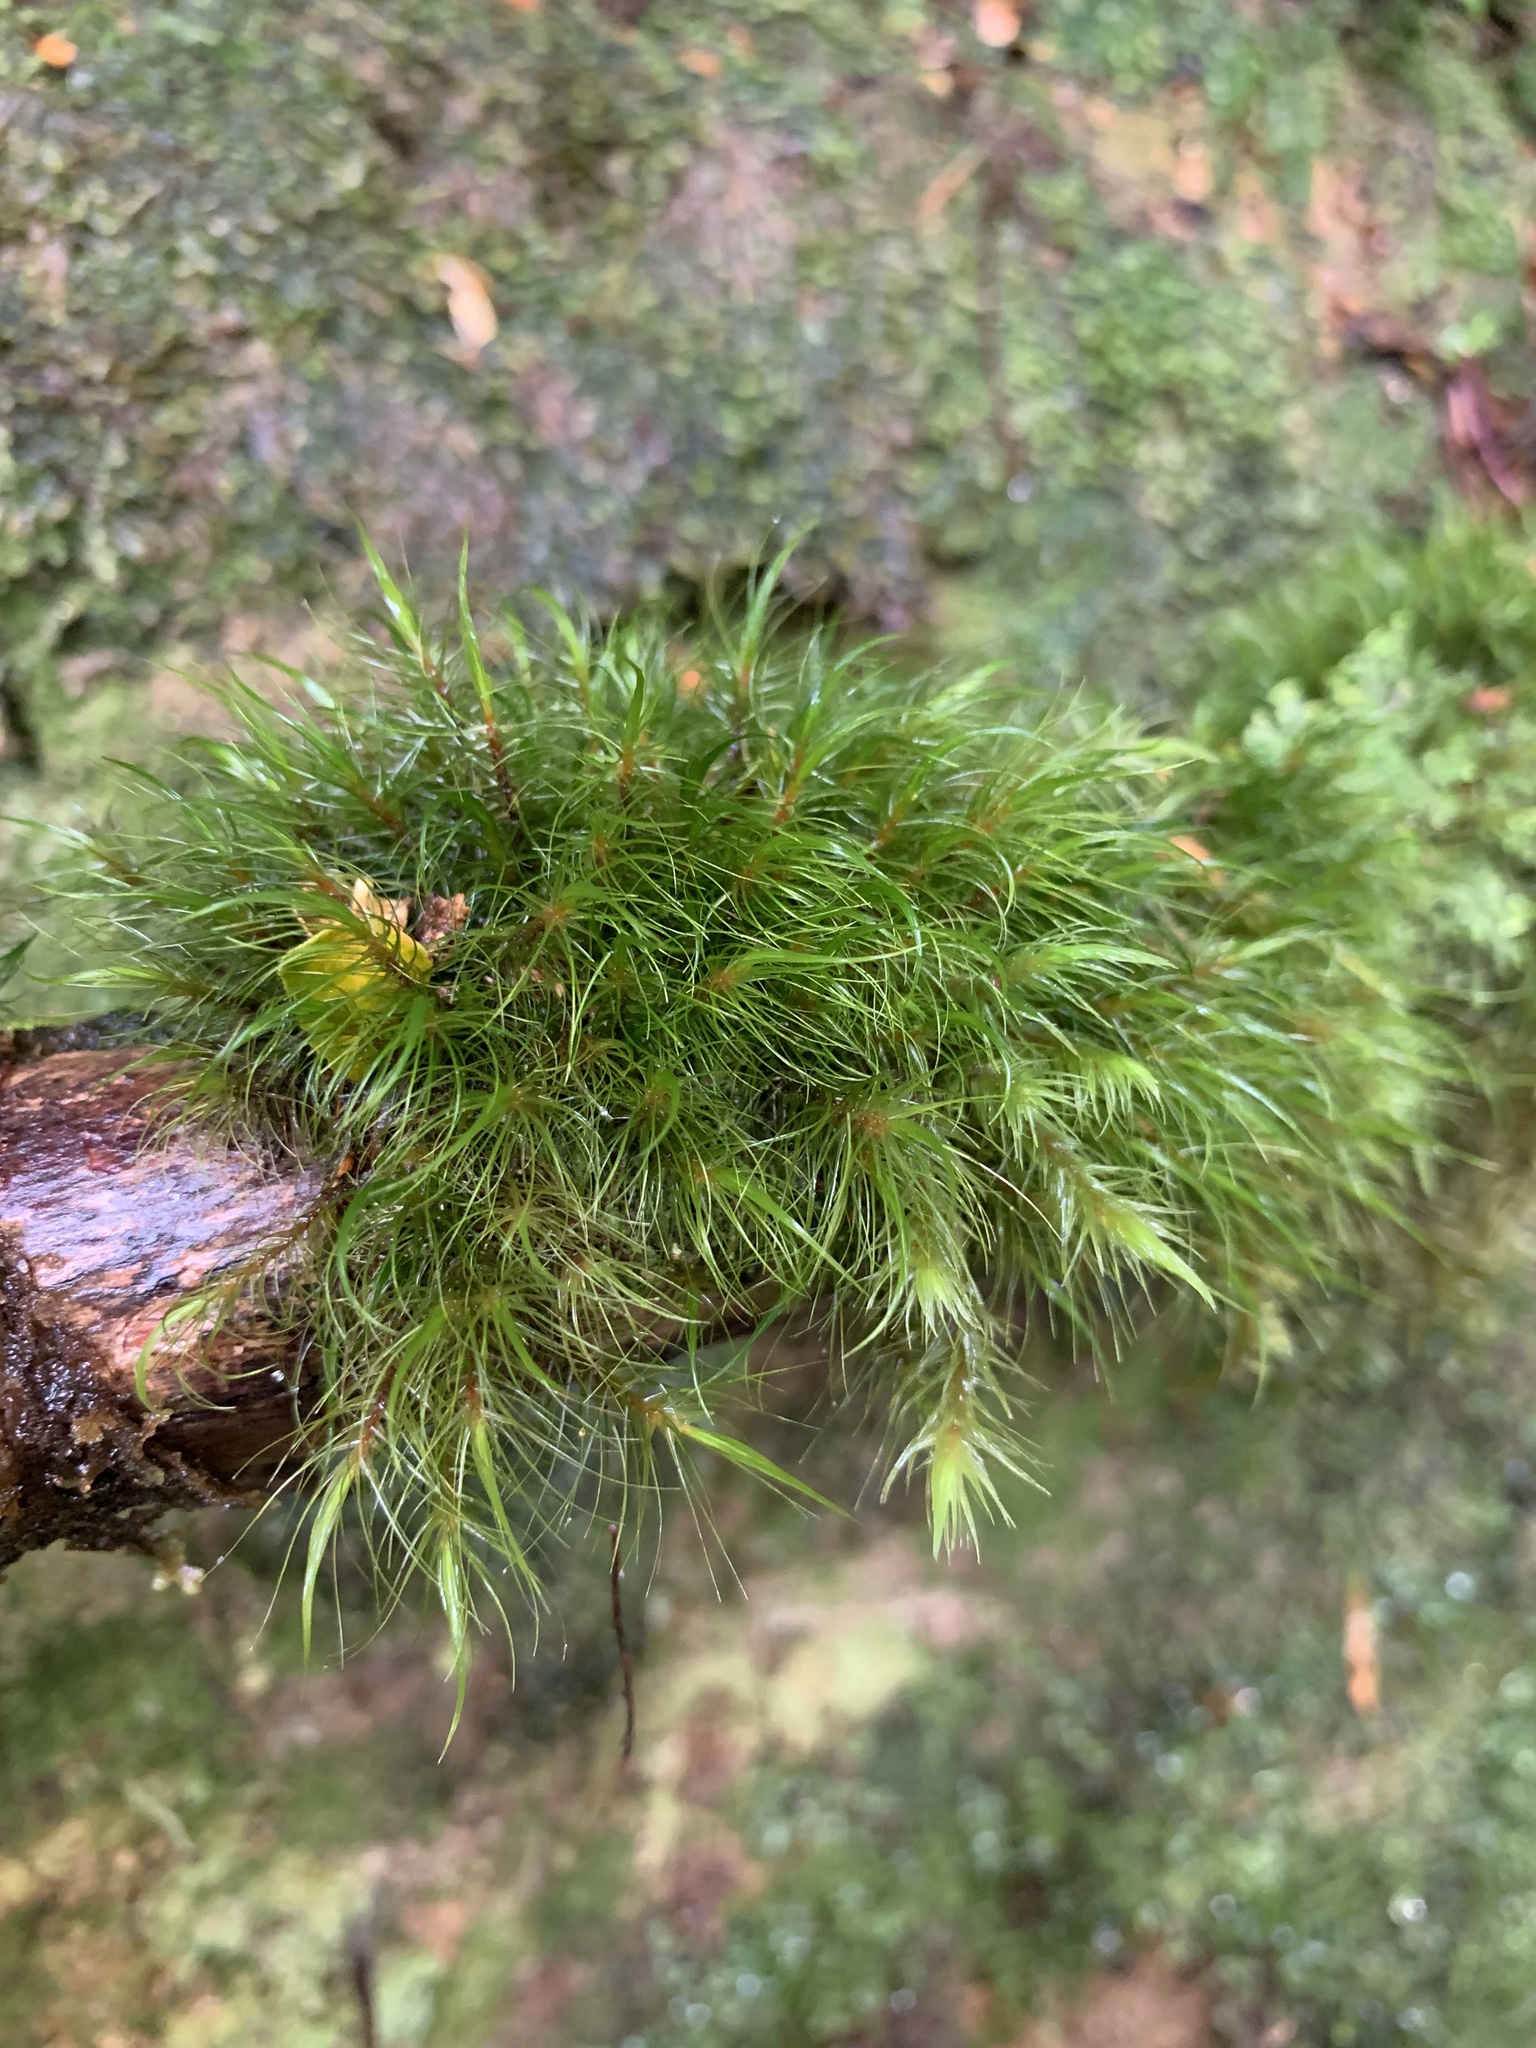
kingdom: Plantae
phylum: Bryophyta
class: Bryopsida
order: Dicranales
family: Dicranaceae
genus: Dicranoloma
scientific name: Dicranoloma menziesii
